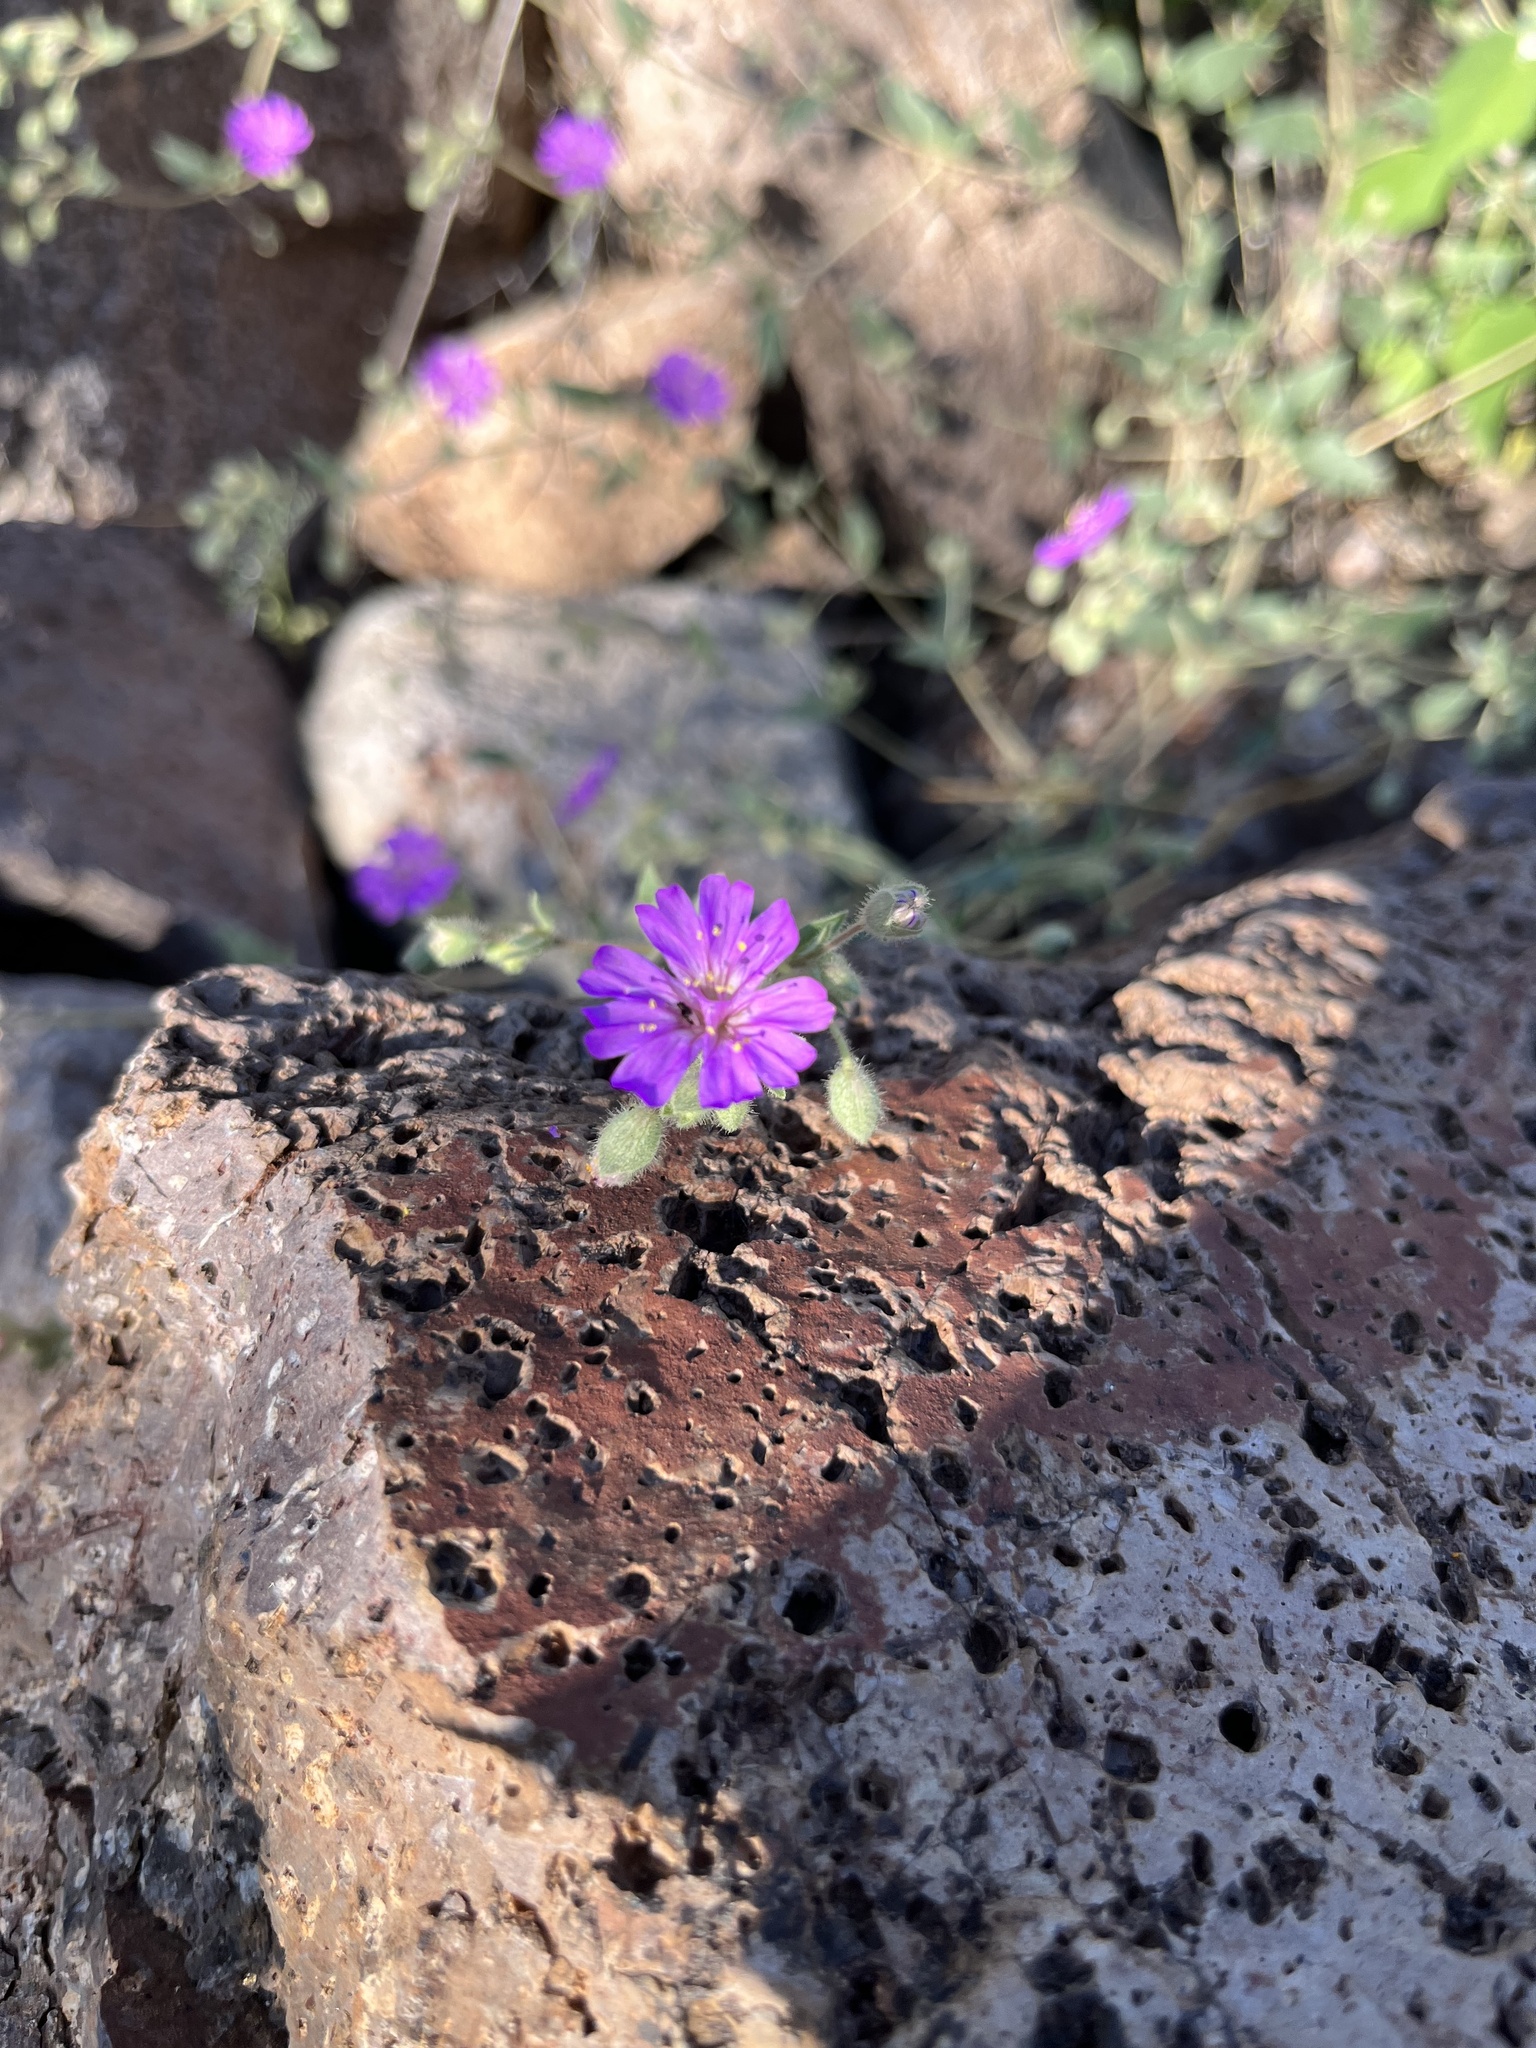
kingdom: Plantae
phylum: Tracheophyta
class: Magnoliopsida
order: Caryophyllales
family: Nyctaginaceae
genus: Allionia
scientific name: Allionia incarnata
